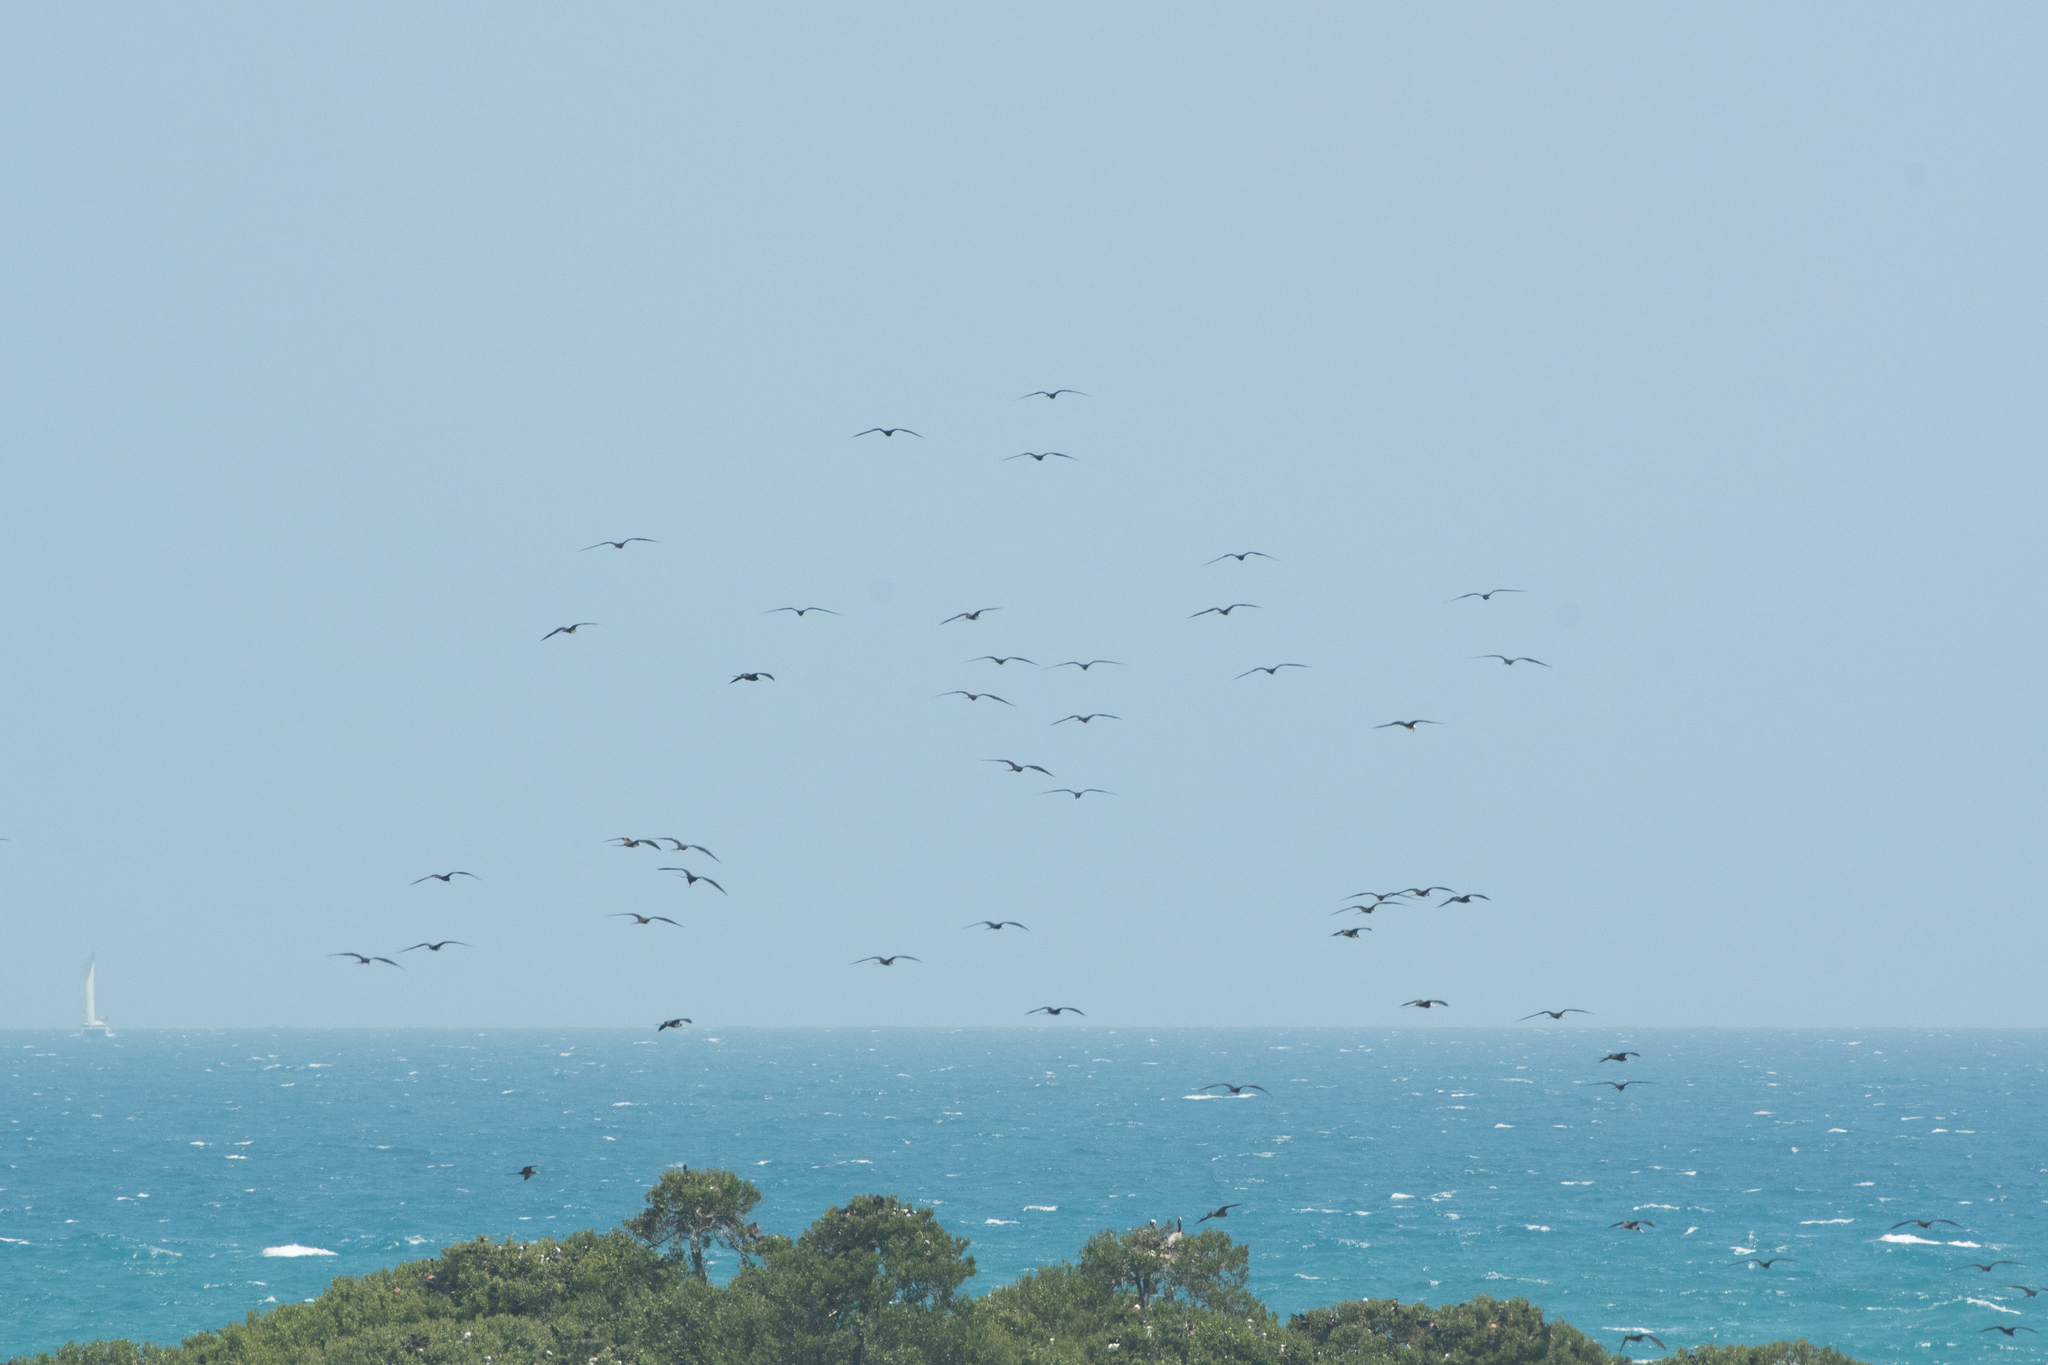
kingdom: Animalia
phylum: Chordata
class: Aves
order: Suliformes
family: Fregatidae
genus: Fregata
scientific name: Fregata magnificens
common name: Magnificent frigatebird
